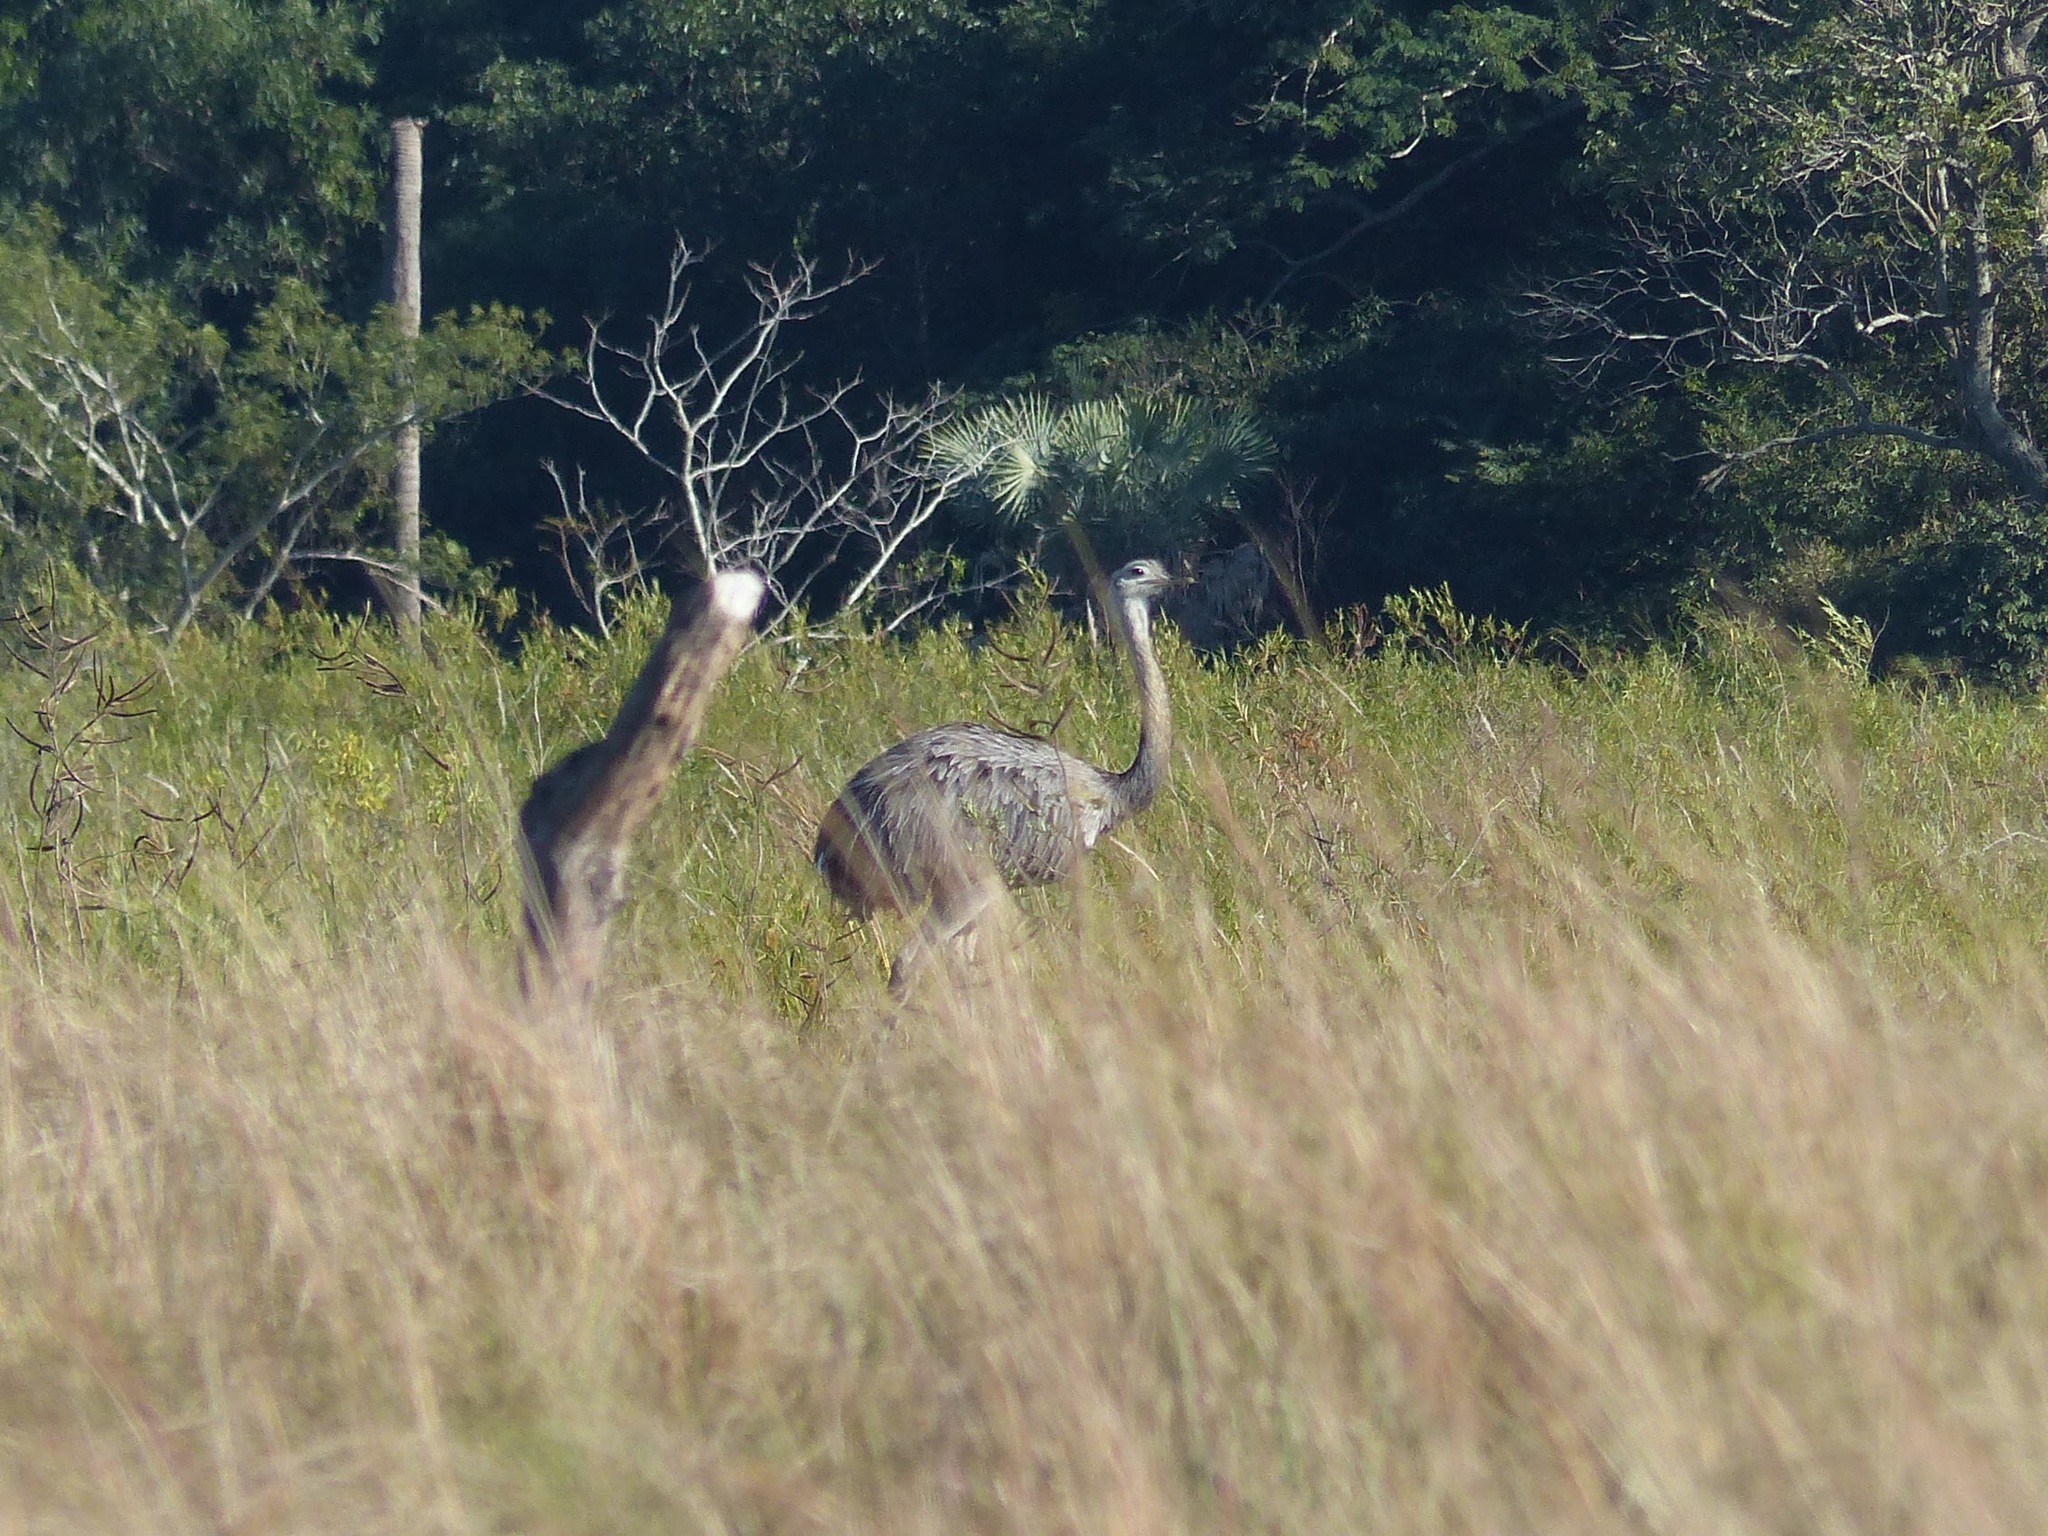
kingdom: Animalia
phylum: Chordata
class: Aves
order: Rheiformes
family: Rheidae
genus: Rhea
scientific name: Rhea americana
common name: Greater rhea
